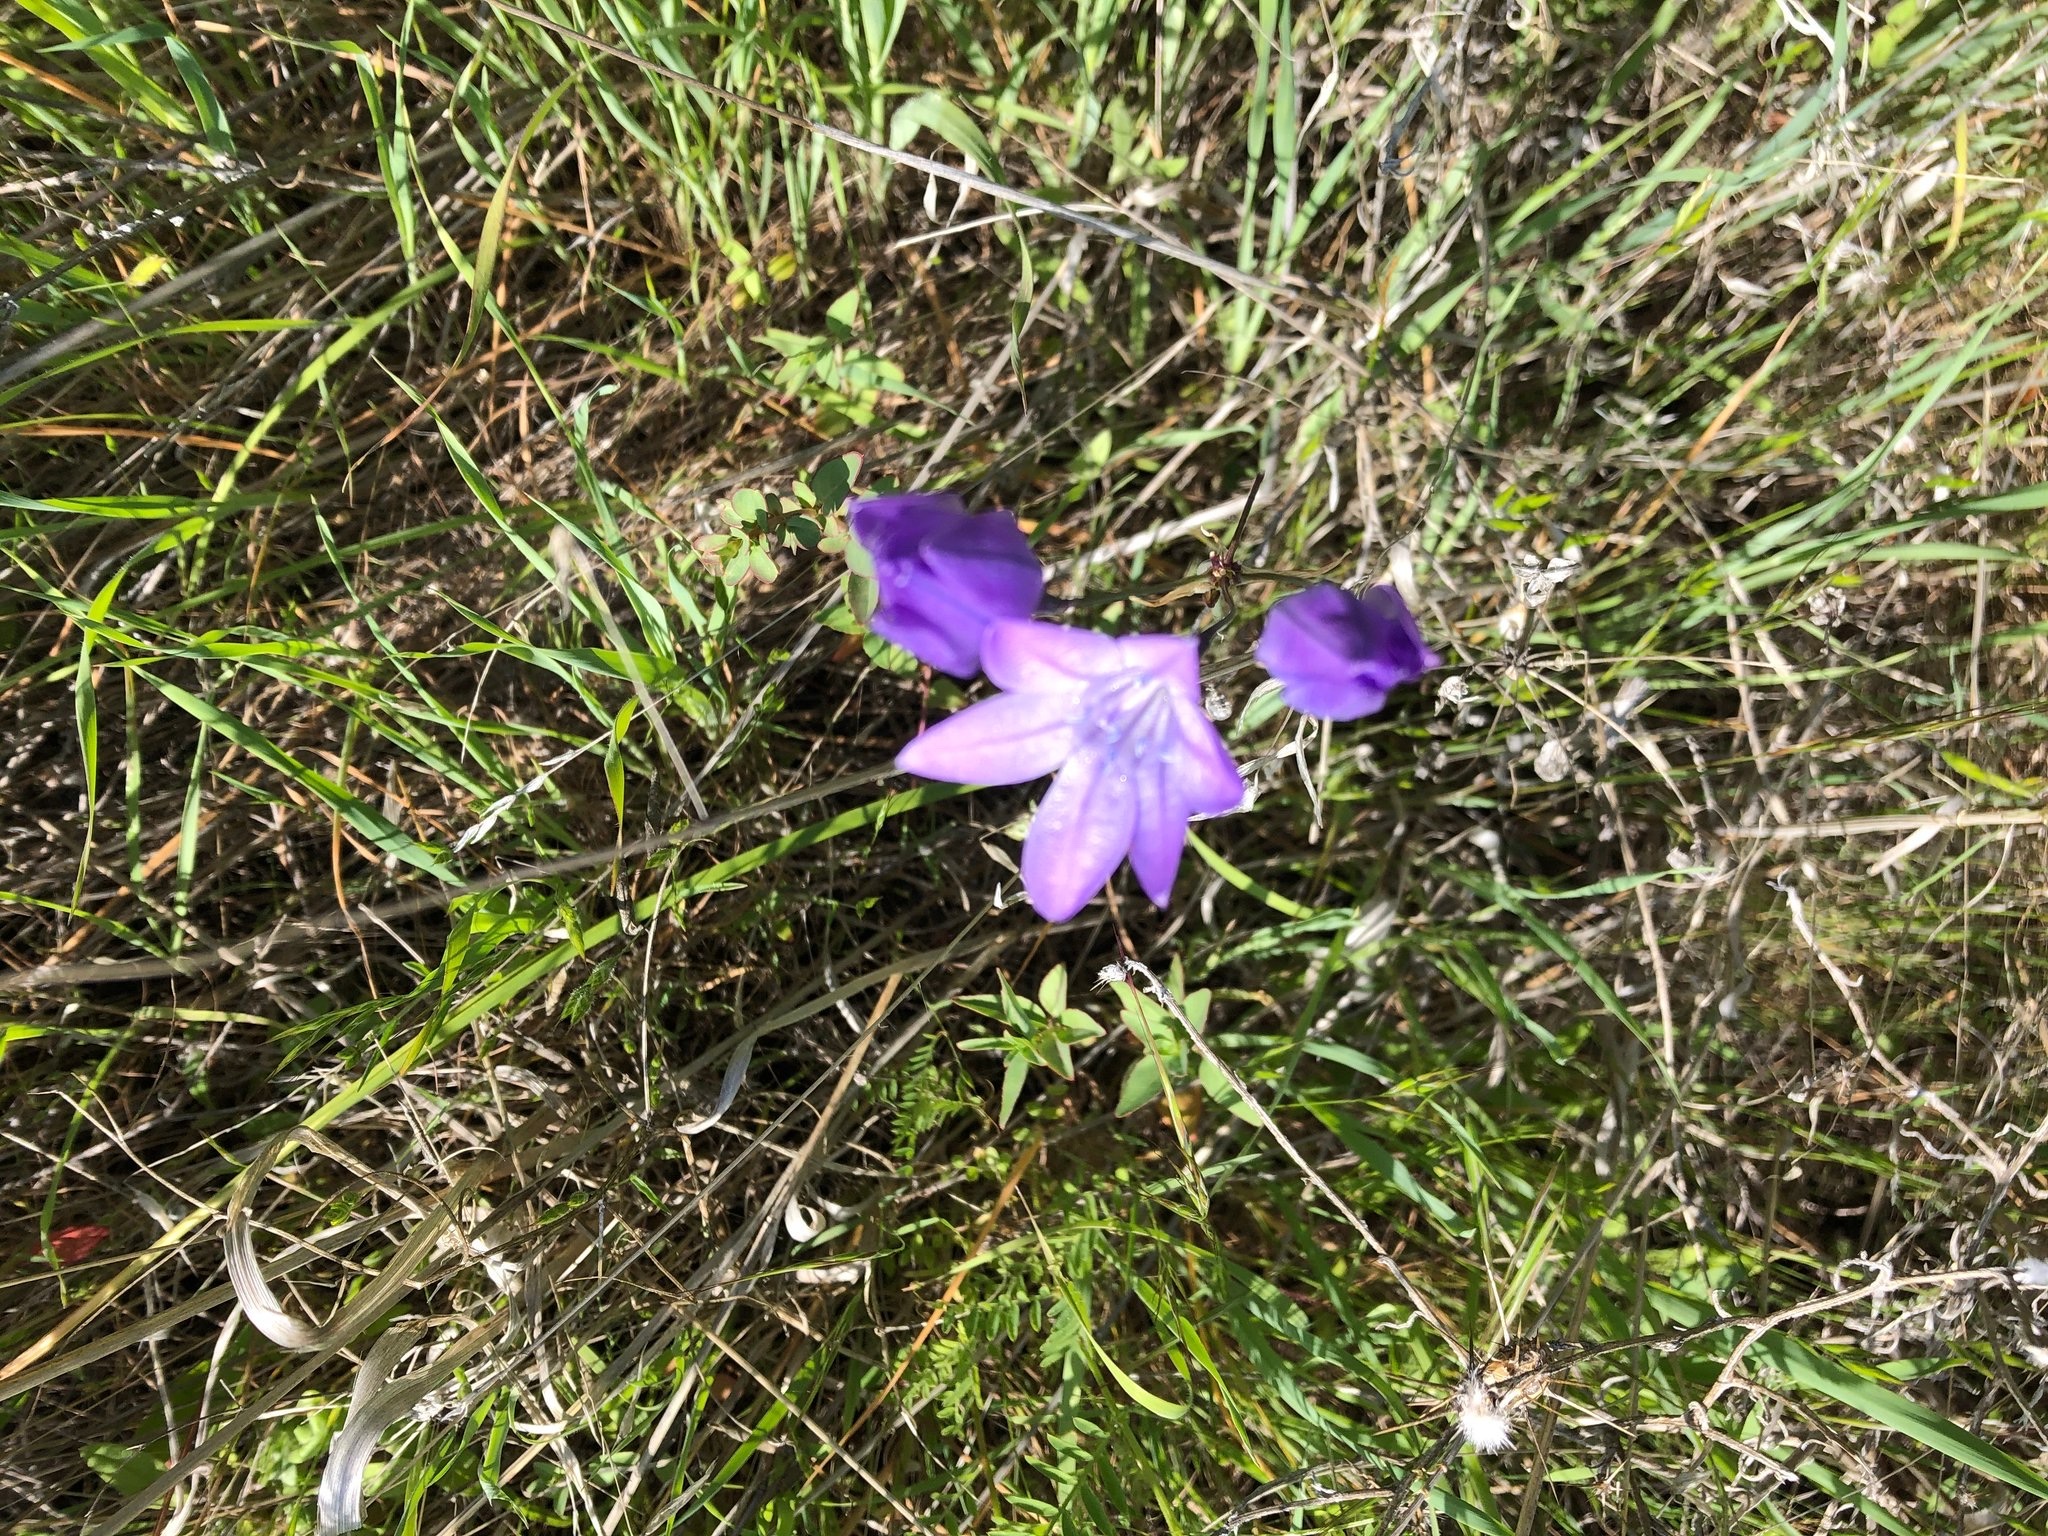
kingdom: Plantae
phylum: Tracheophyta
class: Liliopsida
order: Asparagales
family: Asparagaceae
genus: Triteleia
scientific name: Triteleia laxa
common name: Triplet-lily
